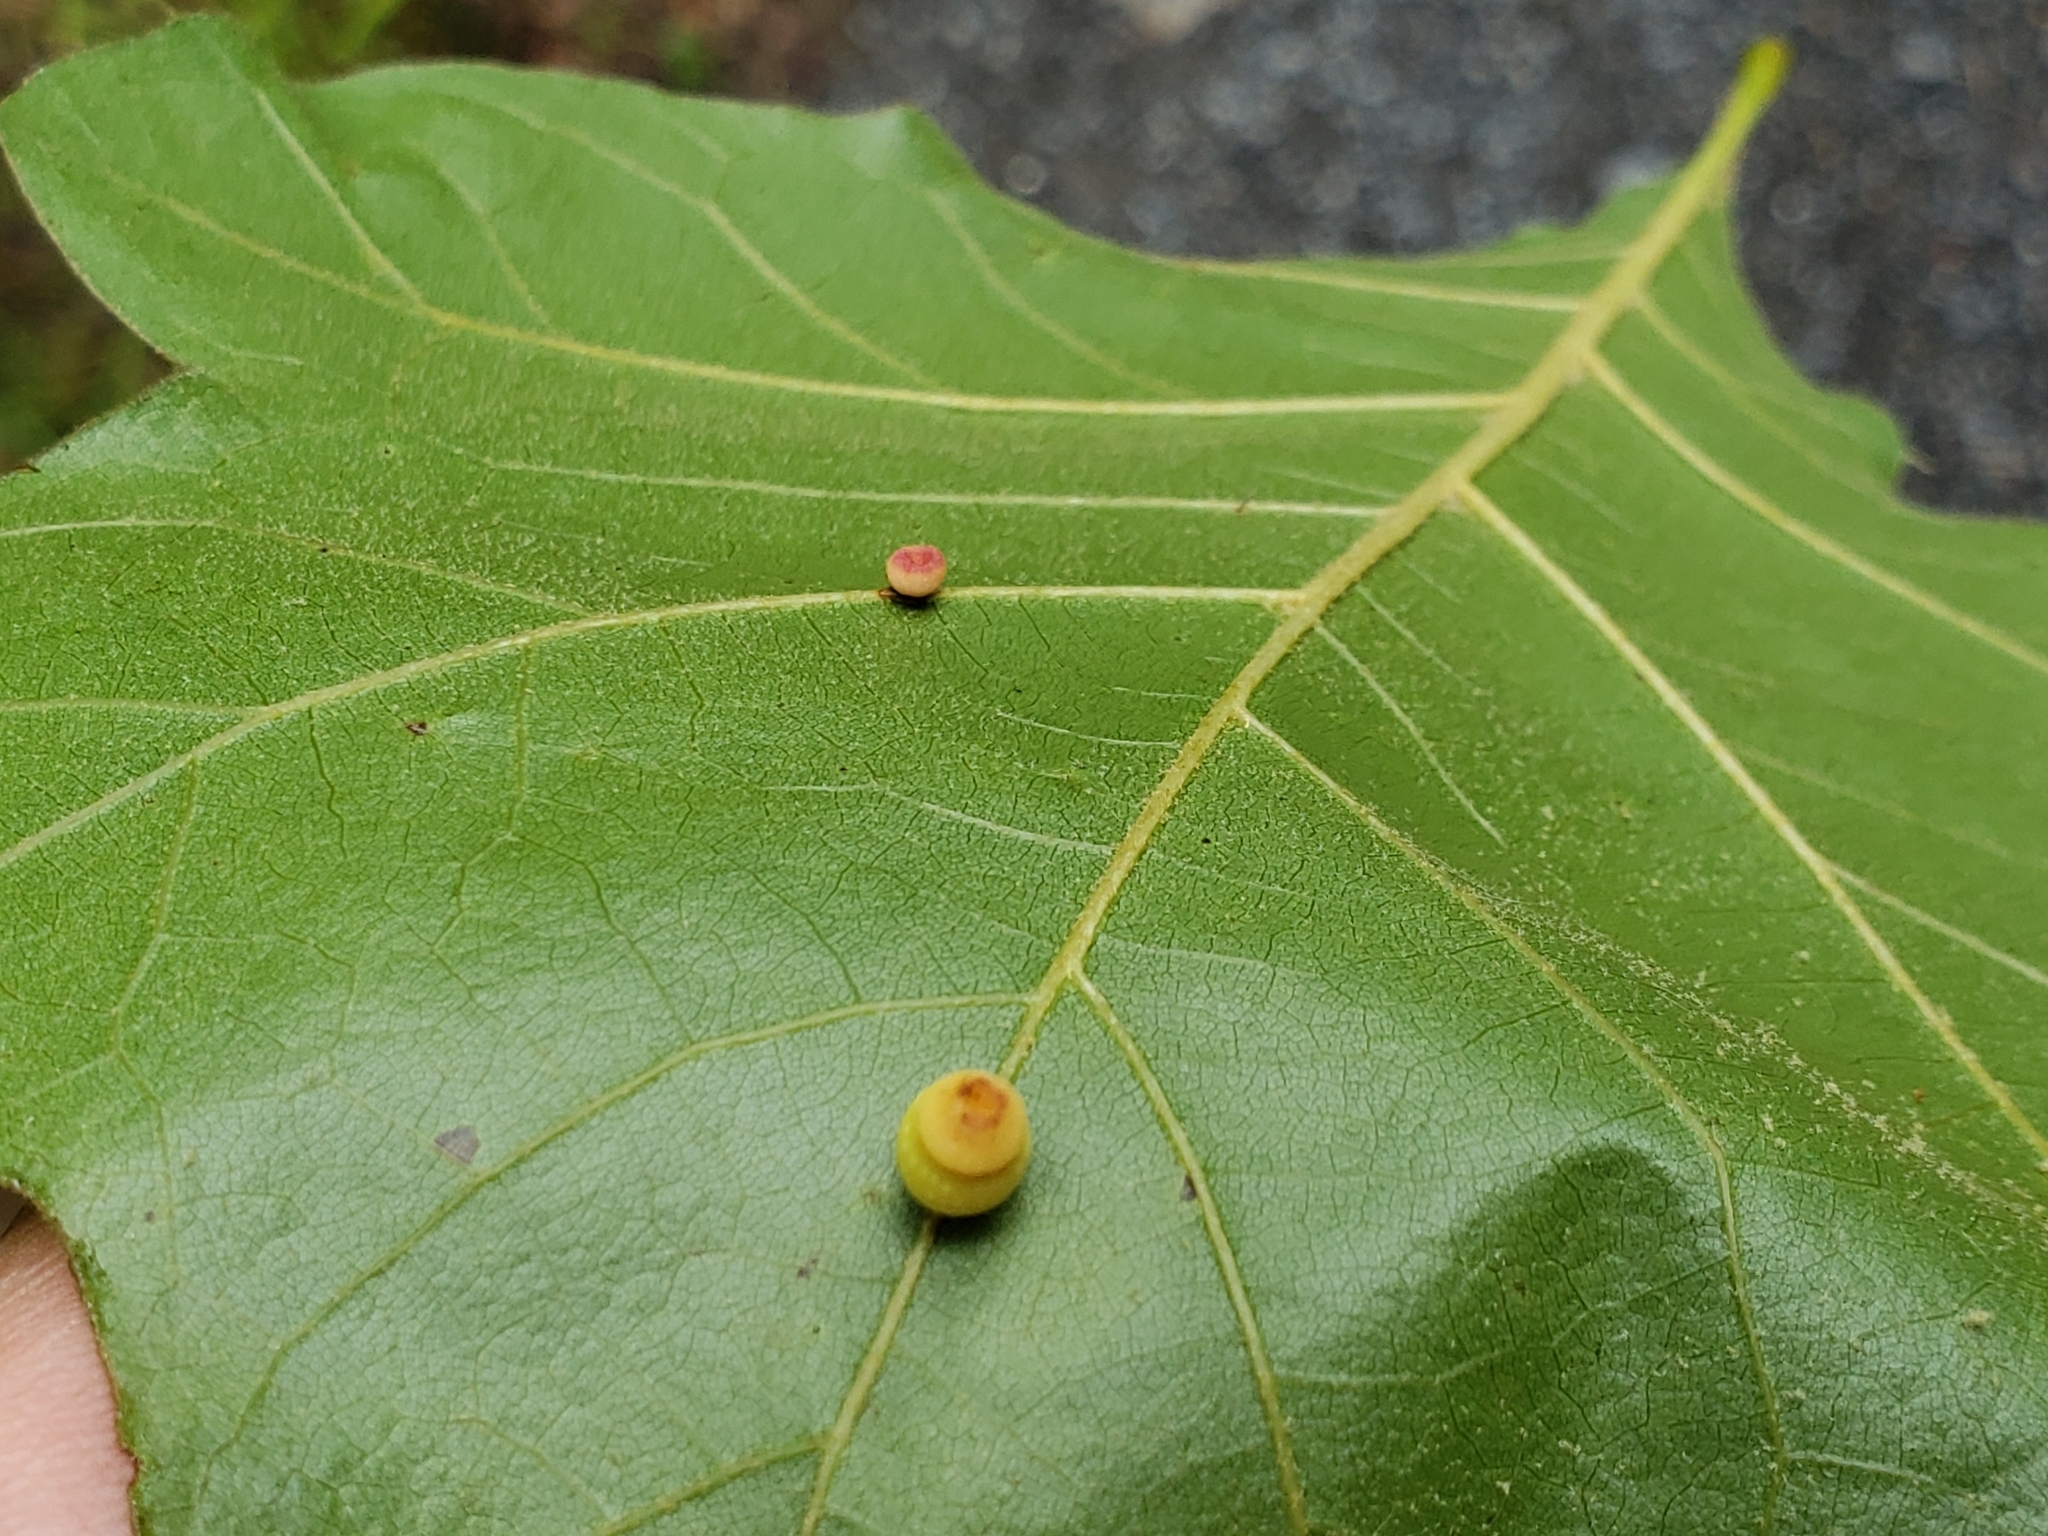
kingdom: Animalia
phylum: Arthropoda
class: Insecta
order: Hymenoptera
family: Cynipidae
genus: Kokkocynips
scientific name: Kokkocynips rileyi
